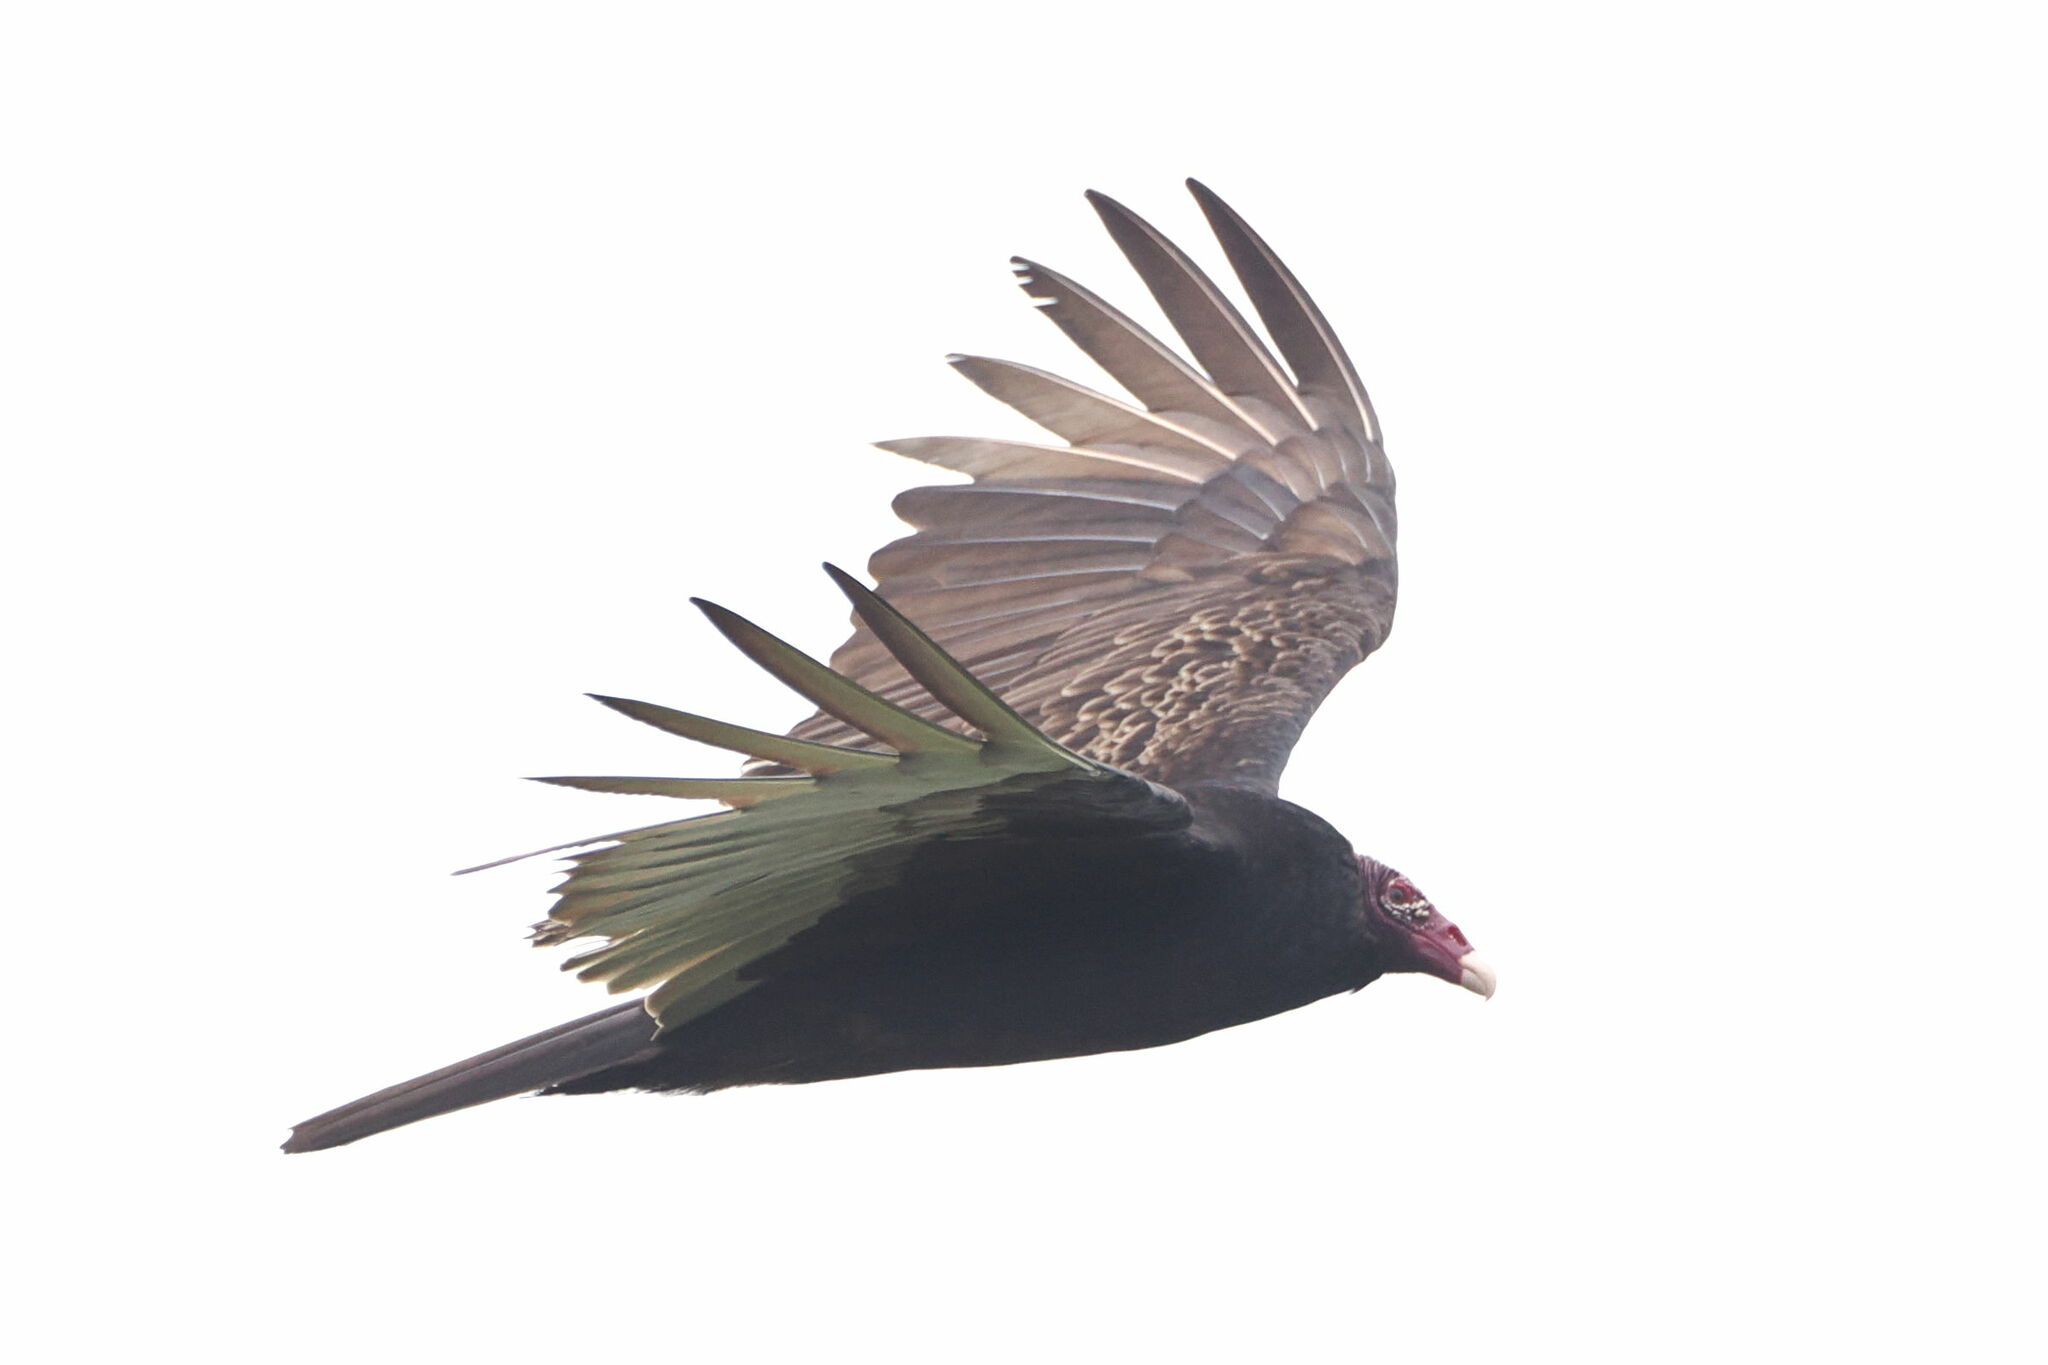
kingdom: Animalia
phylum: Chordata
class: Aves
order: Accipitriformes
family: Cathartidae
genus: Cathartes
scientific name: Cathartes aura
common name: Turkey vulture
